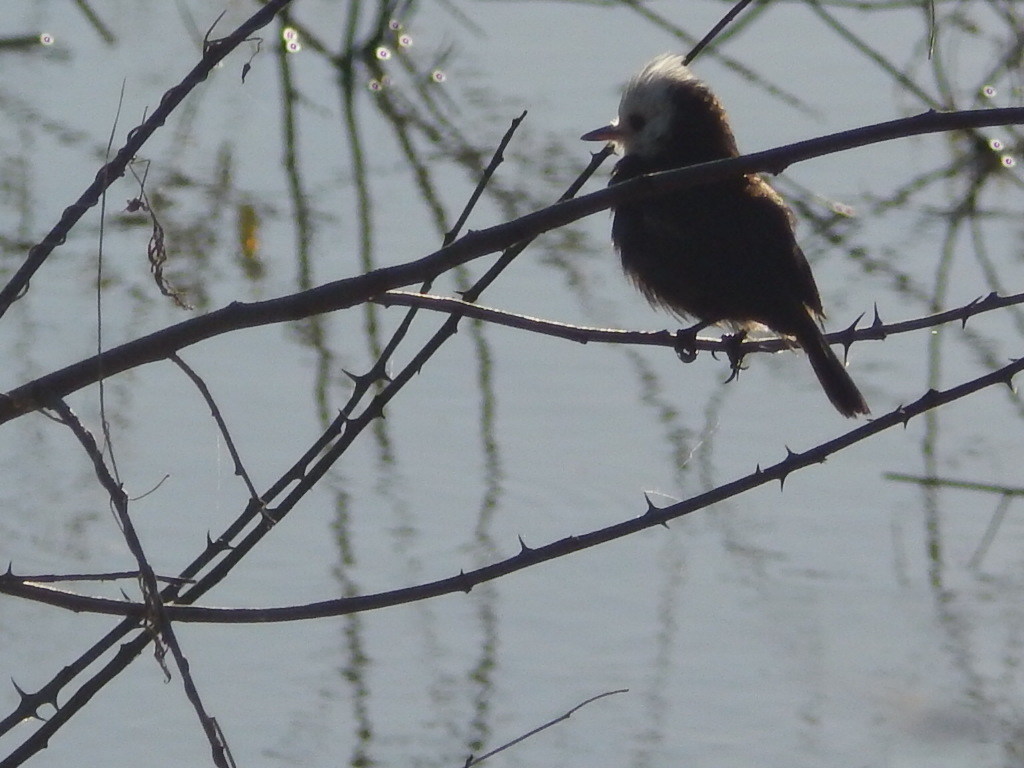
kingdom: Animalia
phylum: Chordata
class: Aves
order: Passeriformes
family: Tyrannidae
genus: Arundinicola
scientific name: Arundinicola leucocephala
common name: White-headed marsh tyrant
